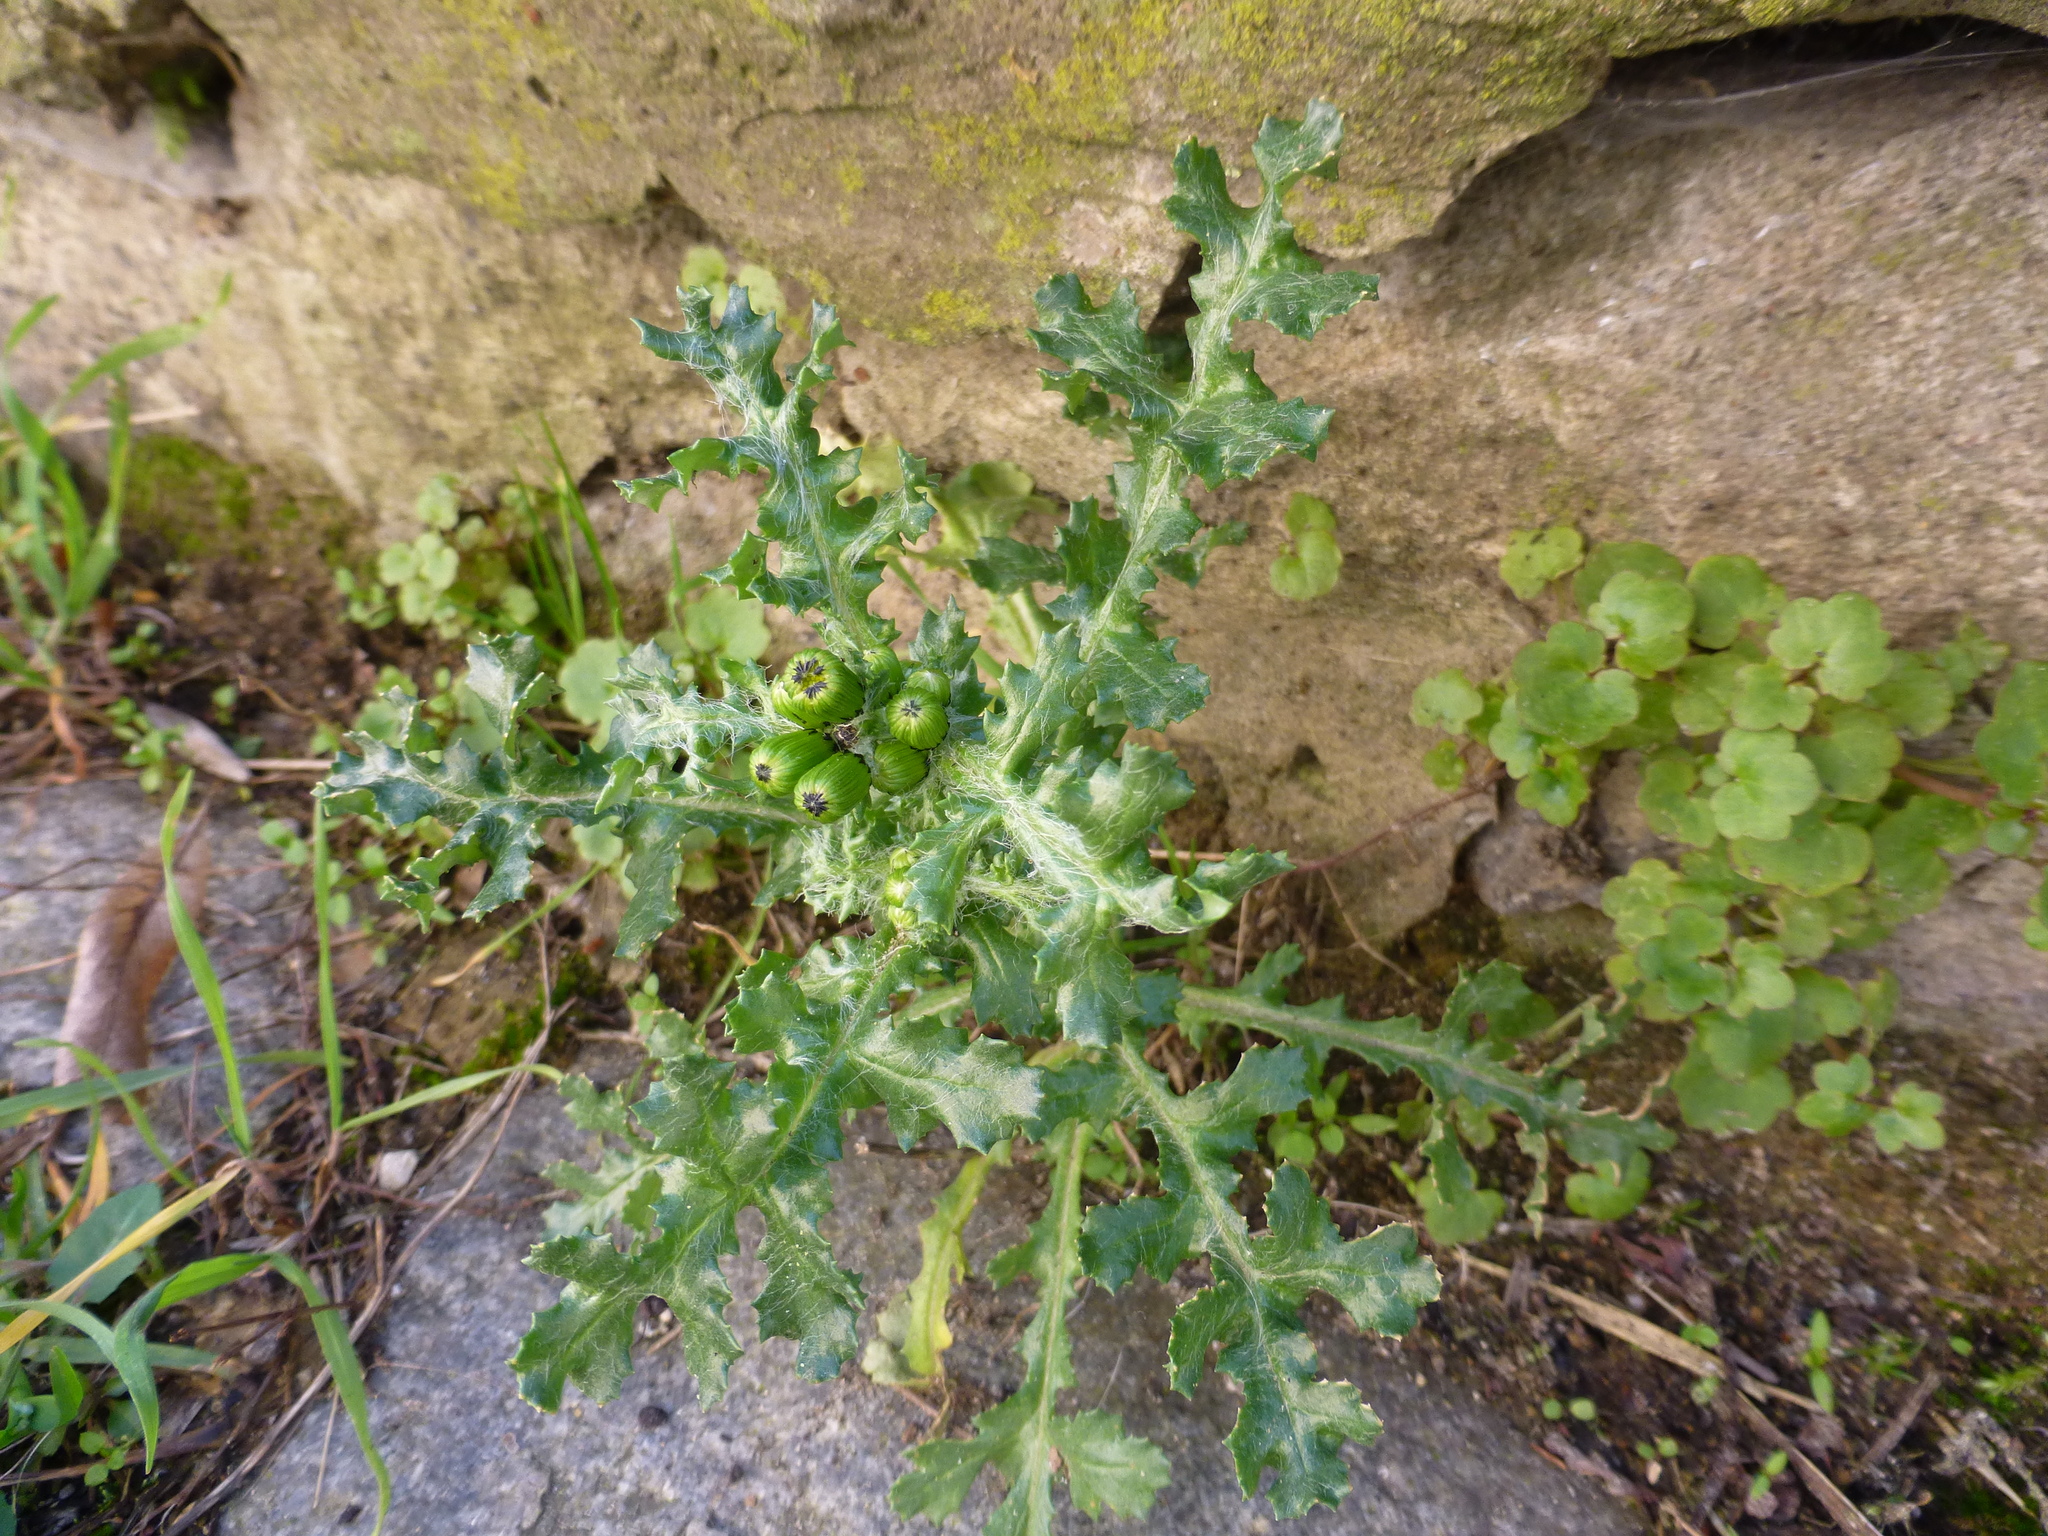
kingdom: Plantae
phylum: Tracheophyta
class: Magnoliopsida
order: Asterales
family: Asteraceae
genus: Senecio
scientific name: Senecio vulgaris
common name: Old-man-in-the-spring
